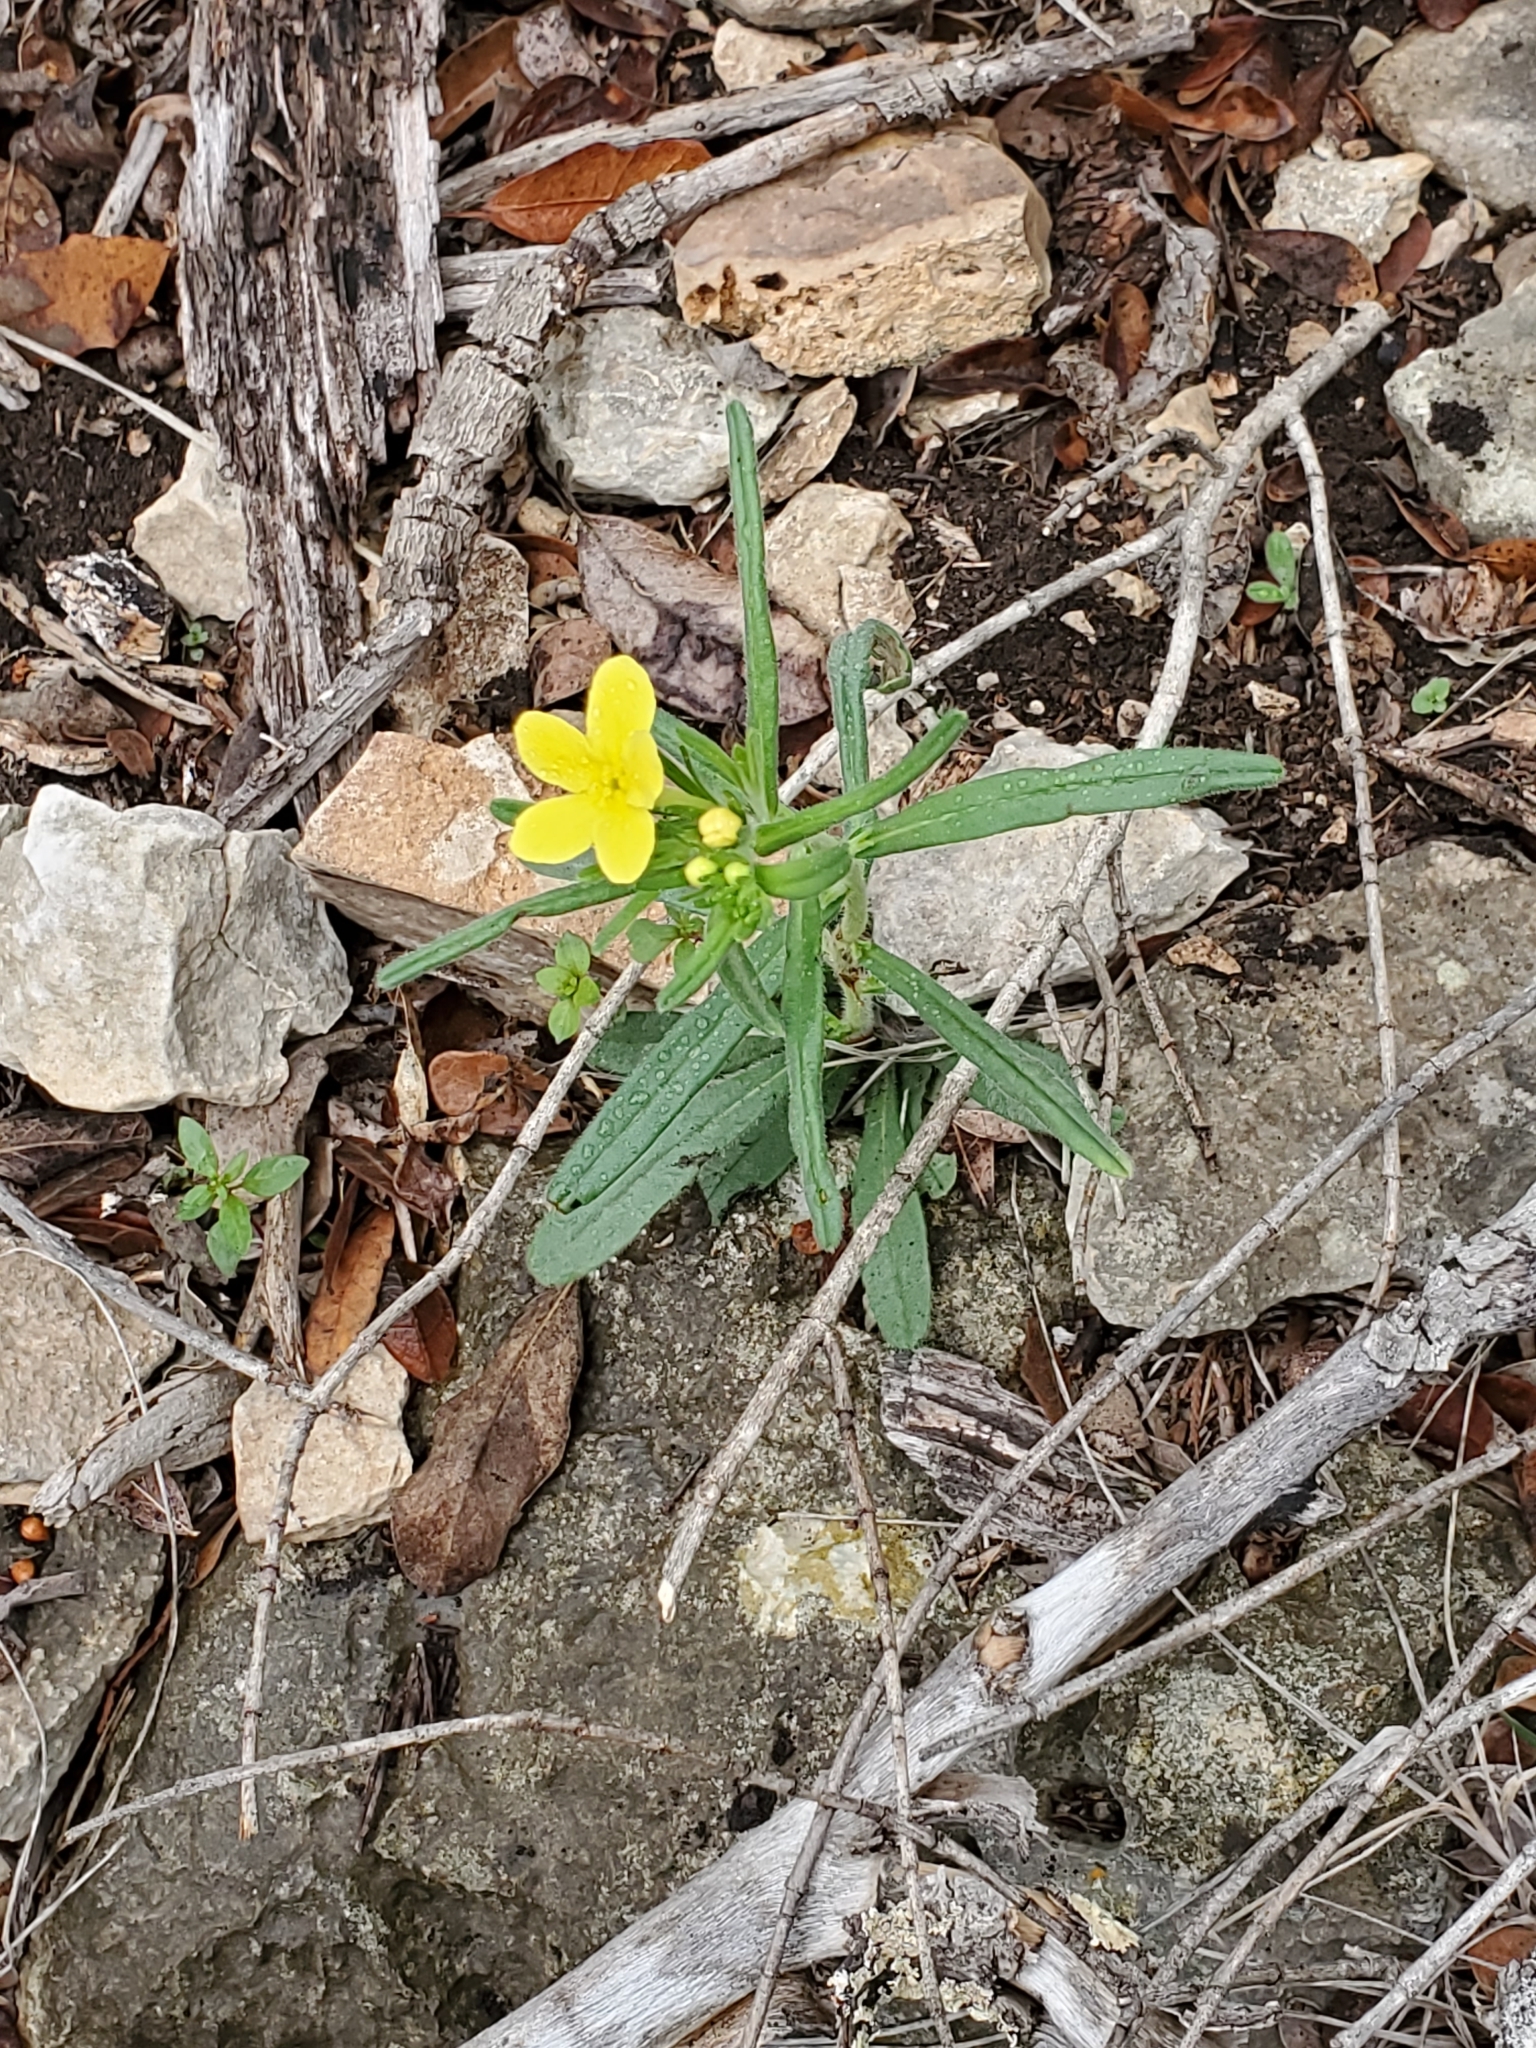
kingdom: Plantae
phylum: Tracheophyta
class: Magnoliopsida
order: Boraginales
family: Boraginaceae
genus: Lithospermum
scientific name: Lithospermum mirabile
